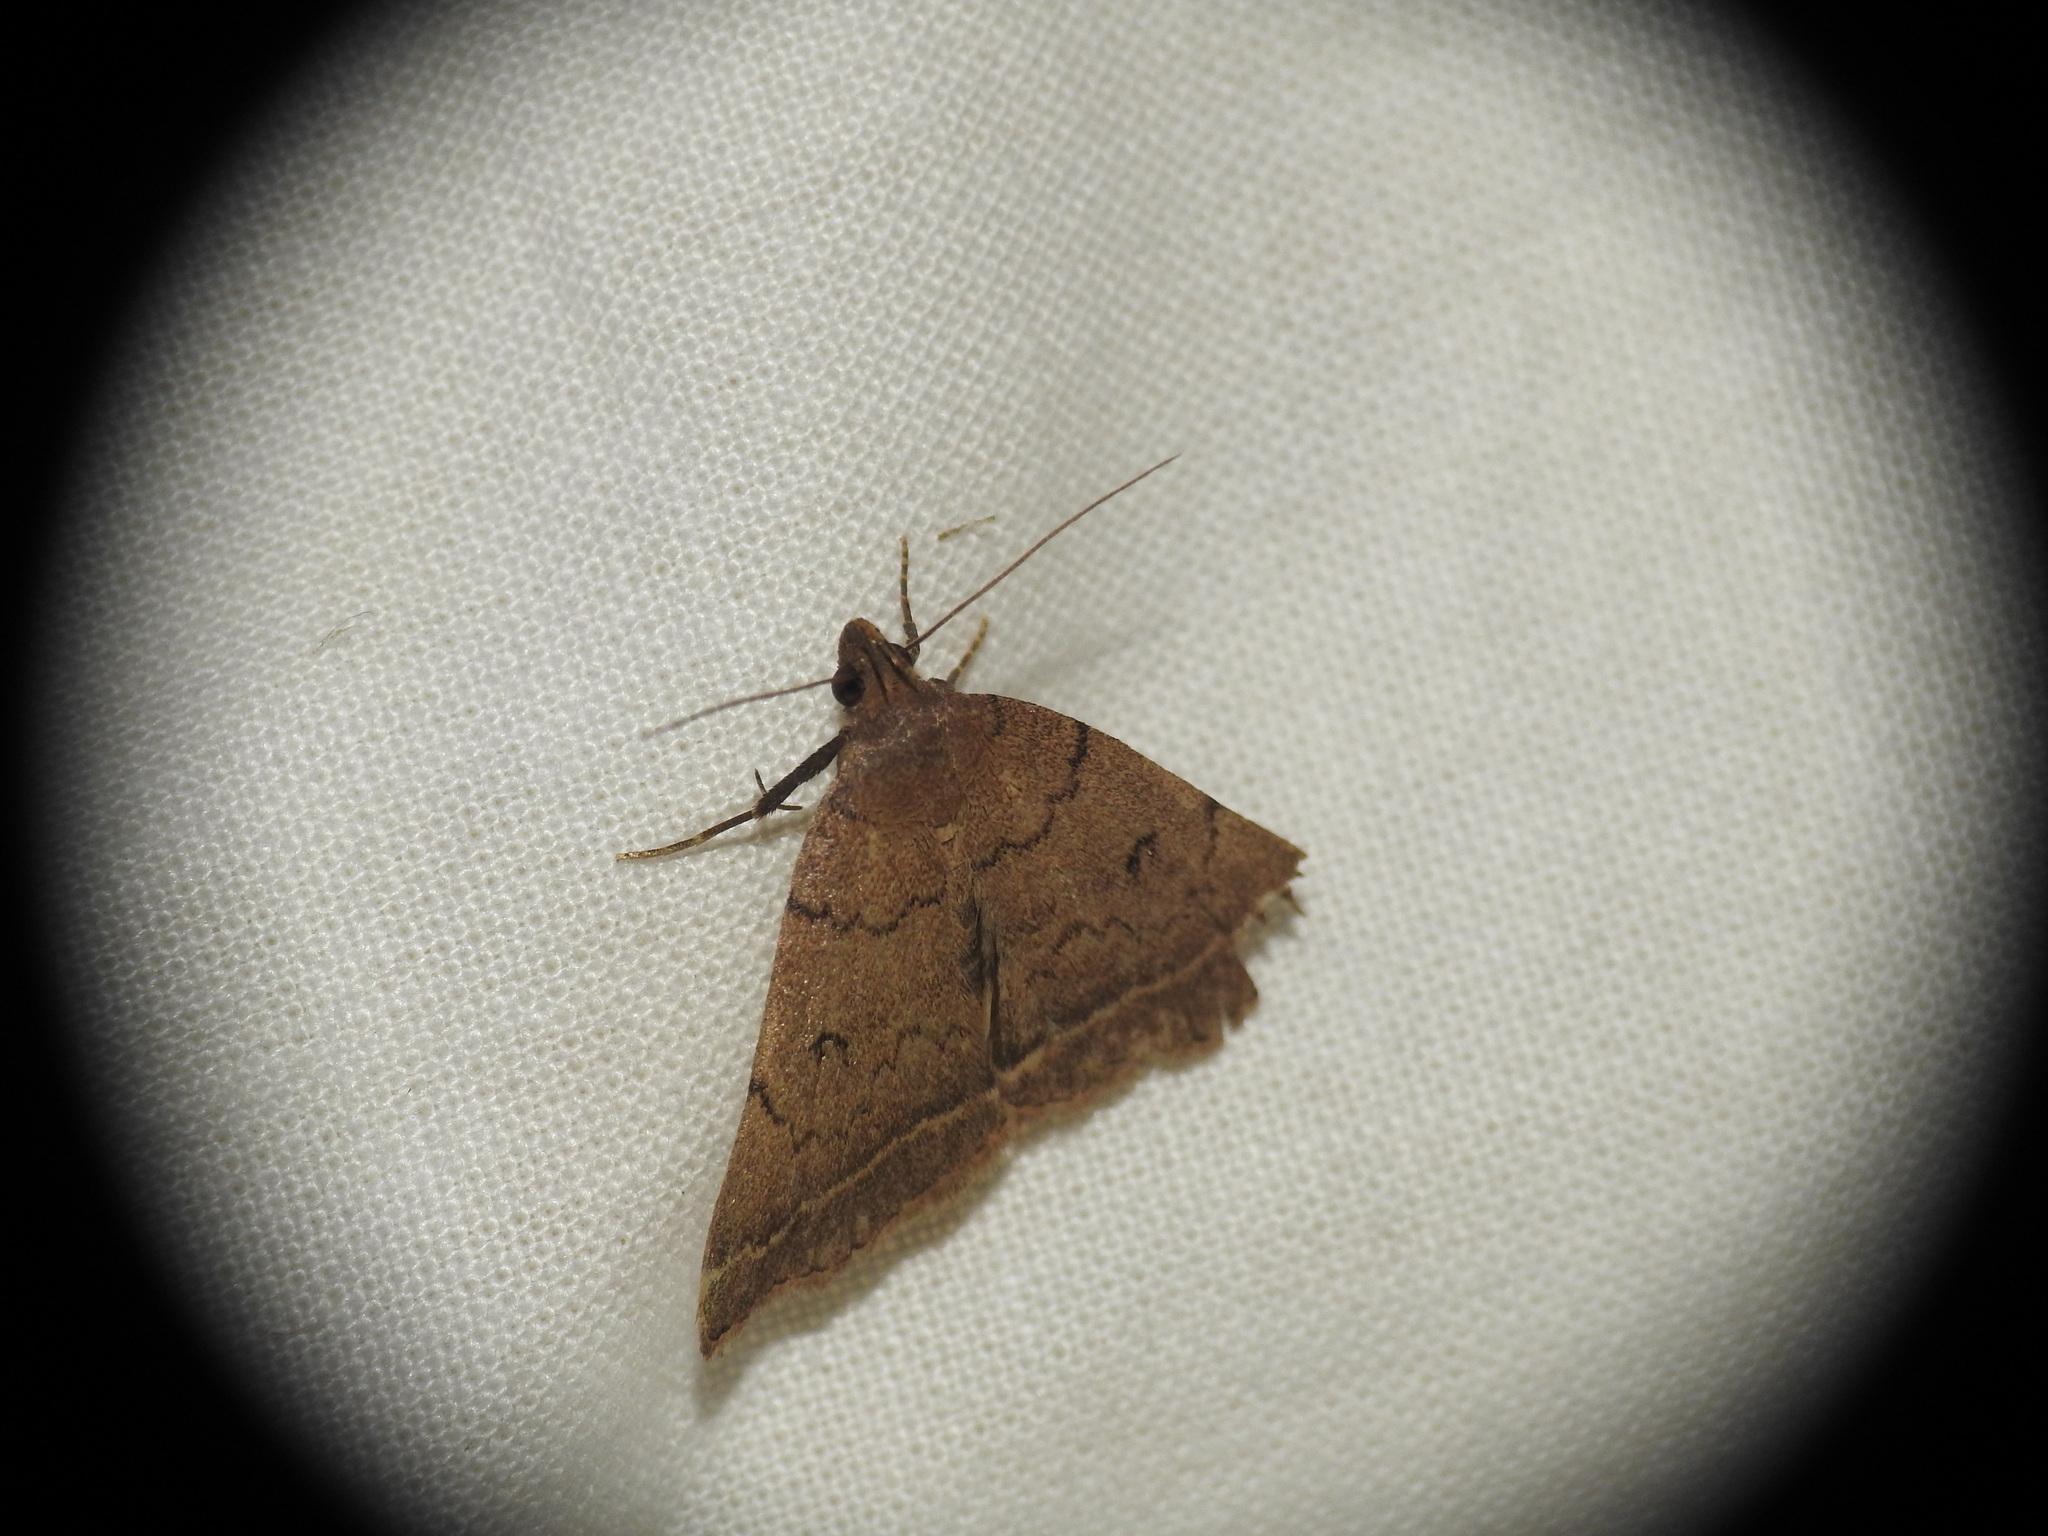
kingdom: Animalia
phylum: Arthropoda
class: Insecta
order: Lepidoptera
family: Erebidae
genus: Pechipogo
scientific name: Pechipogo plumigeralis
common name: Plumed fan-foot
